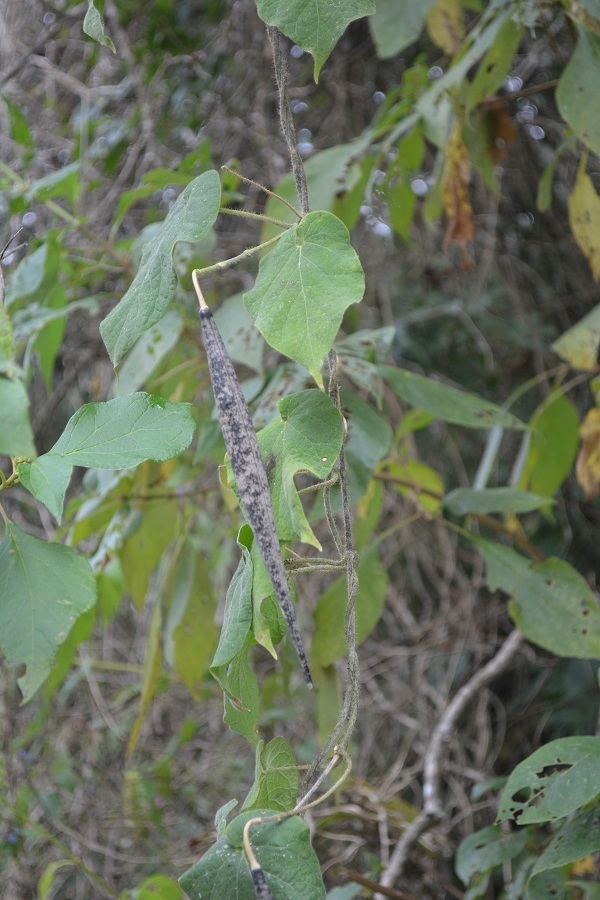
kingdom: Plantae
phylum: Tracheophyta
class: Magnoliopsida
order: Gentianales
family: Apocynaceae
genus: Matelea
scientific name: Matelea velutinoides
